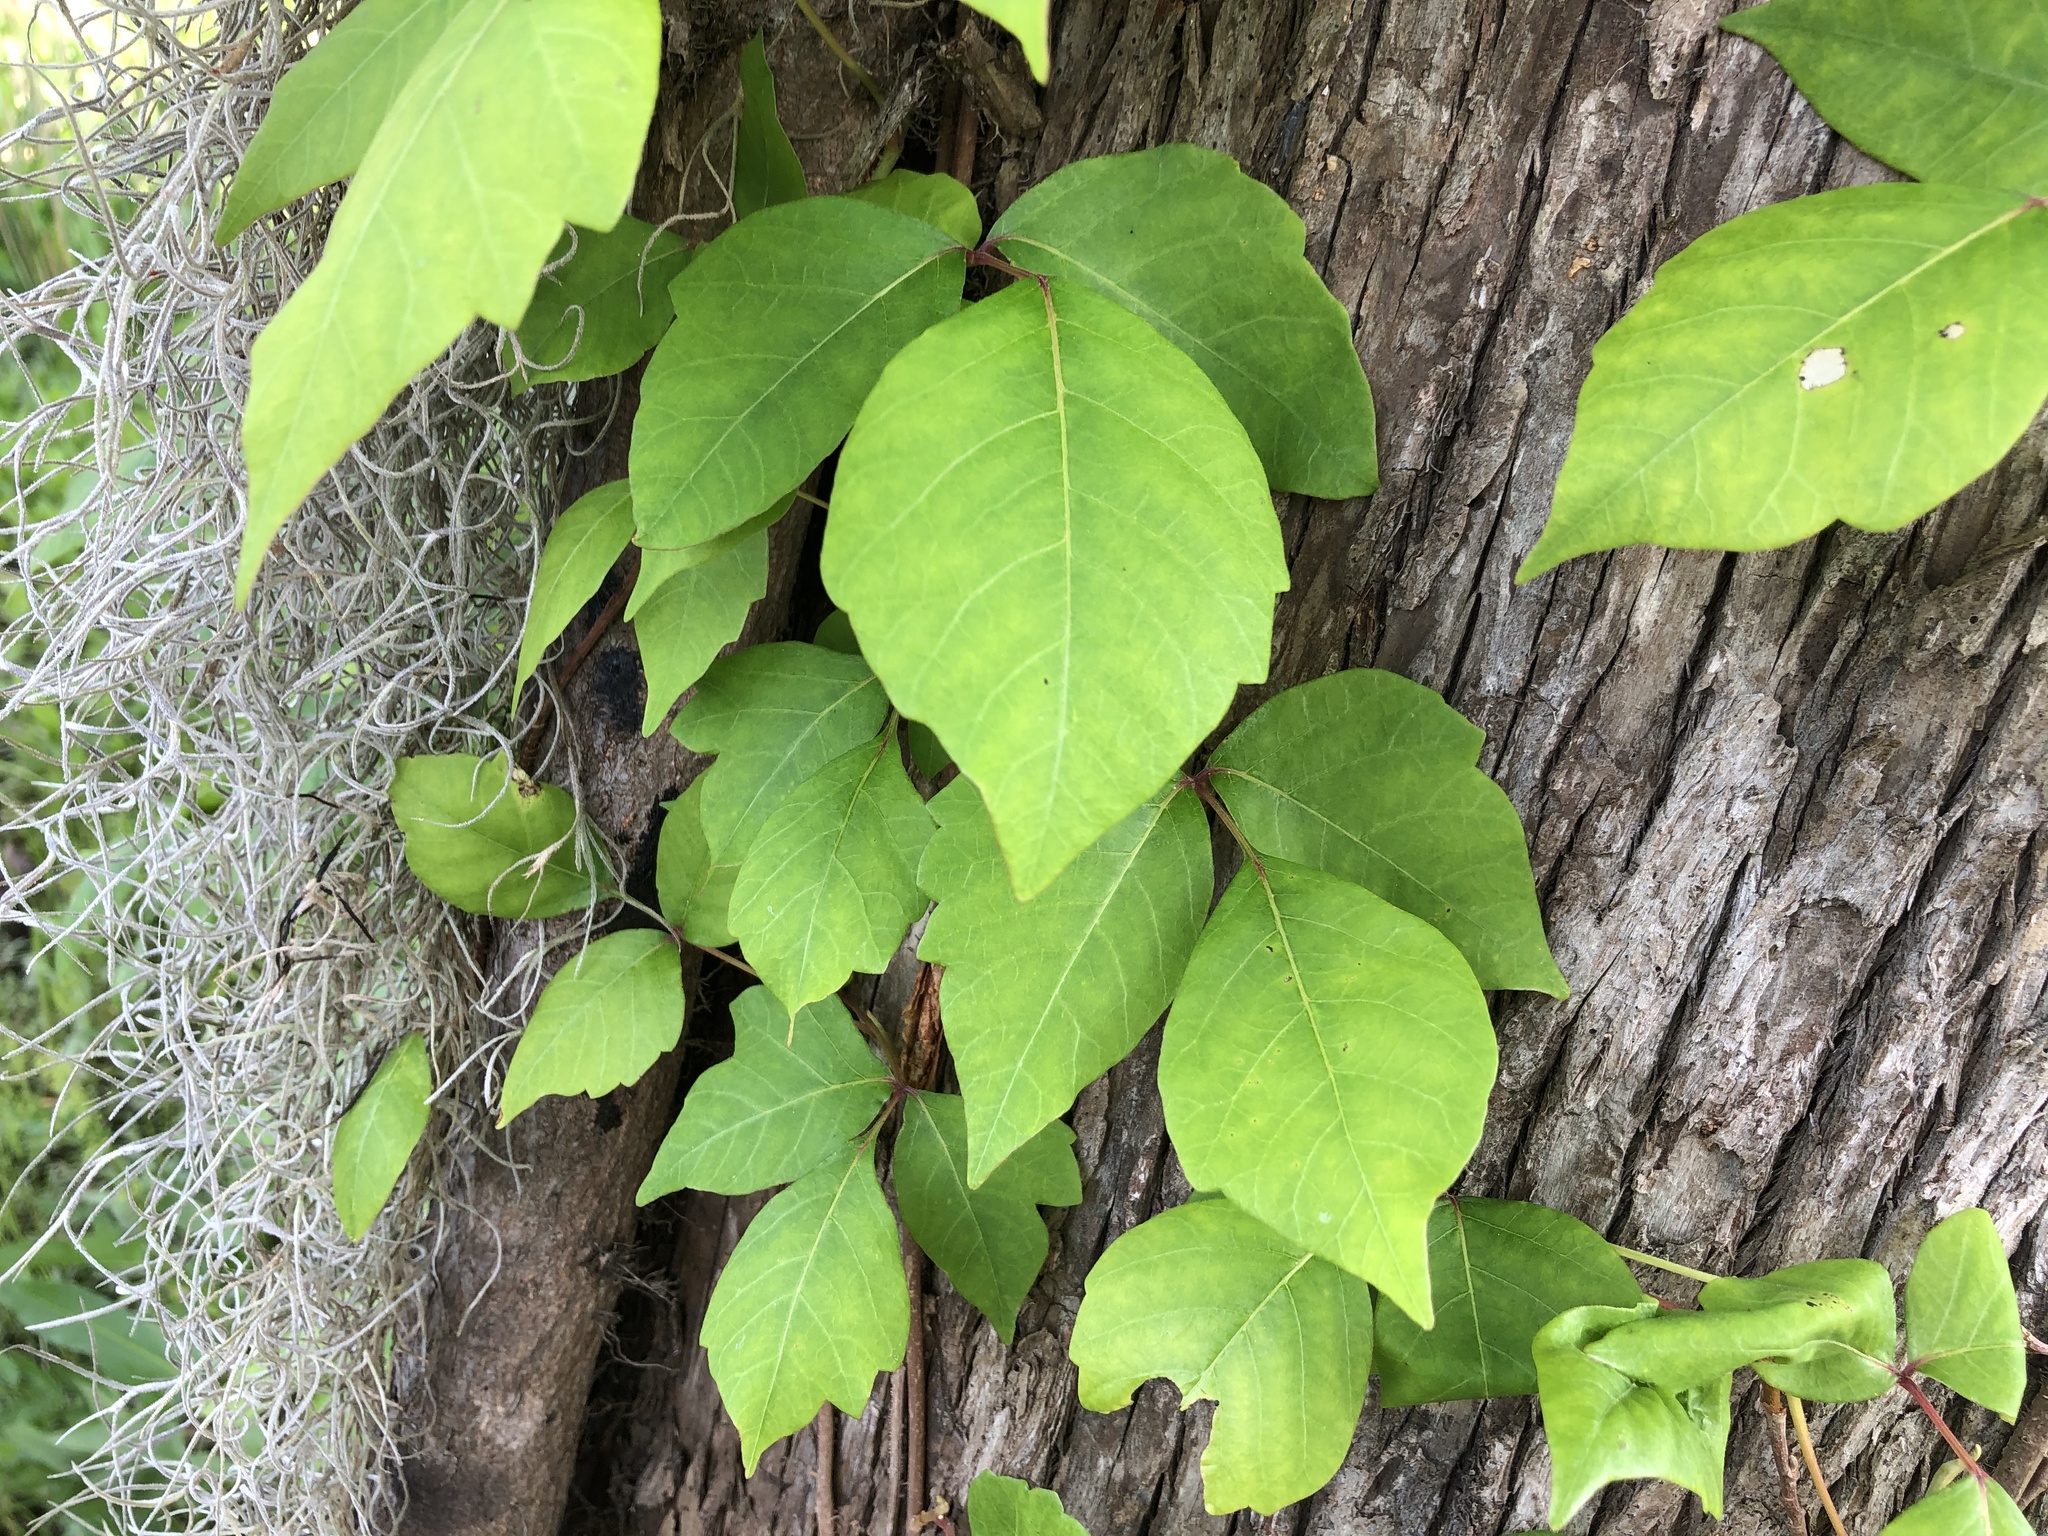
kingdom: Plantae
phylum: Tracheophyta
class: Magnoliopsida
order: Sapindales
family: Anacardiaceae
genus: Toxicodendron
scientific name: Toxicodendron radicans
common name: Poison ivy
